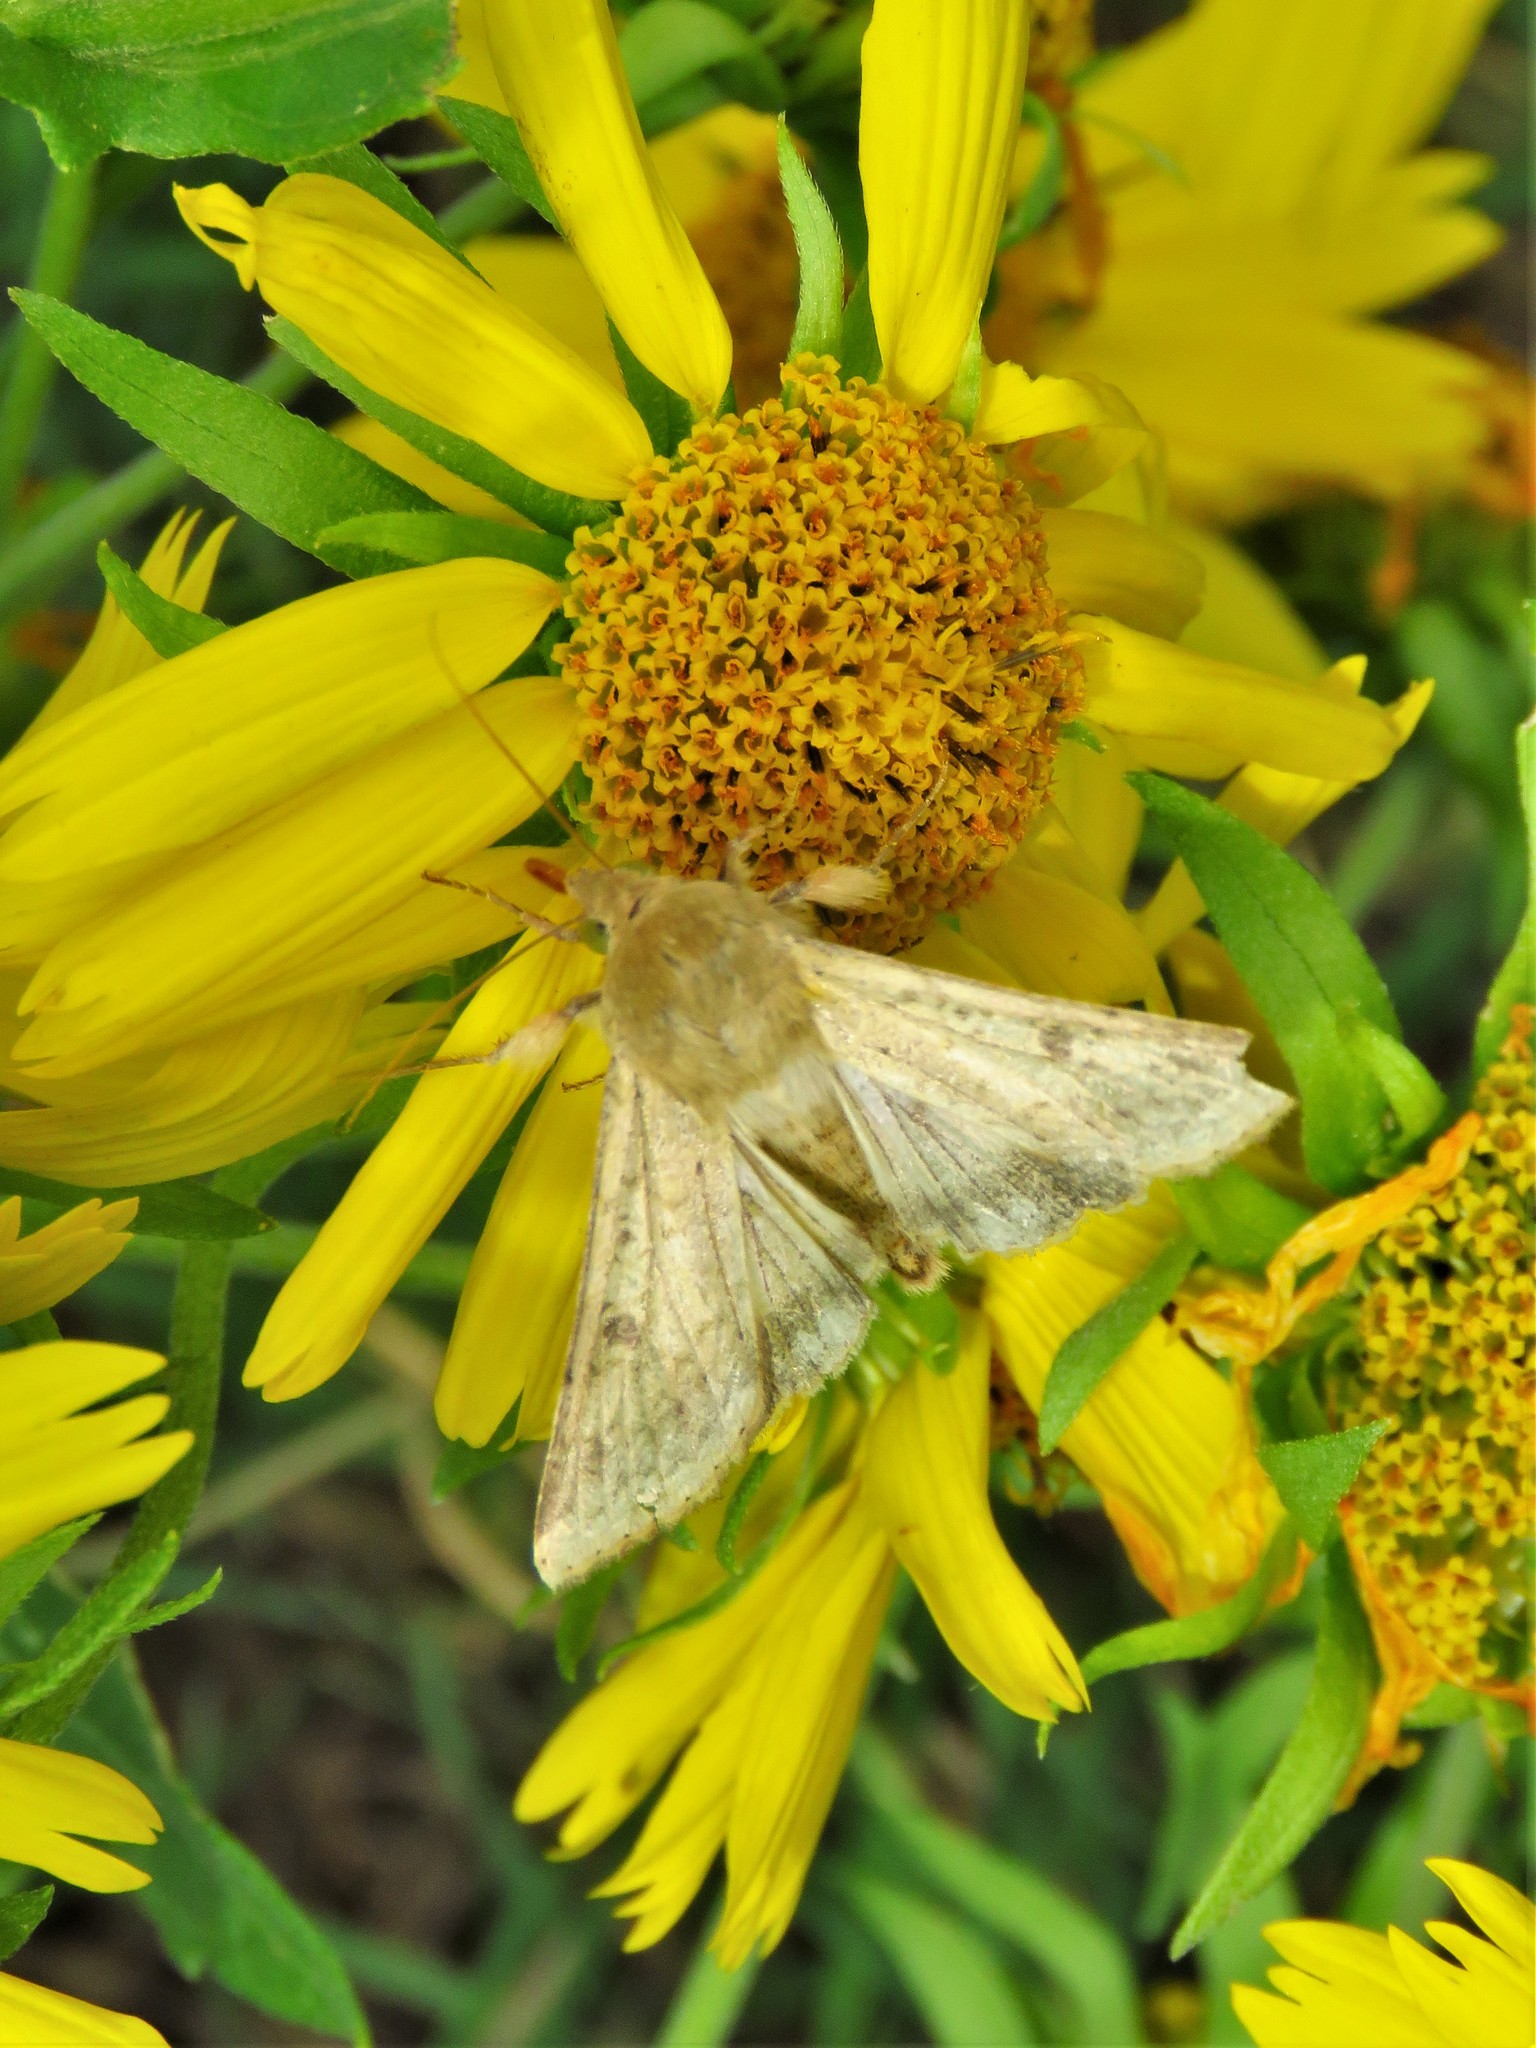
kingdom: Animalia
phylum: Arthropoda
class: Insecta
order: Lepidoptera
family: Noctuidae
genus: Helicoverpa
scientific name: Helicoverpa zea
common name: Bollworm
